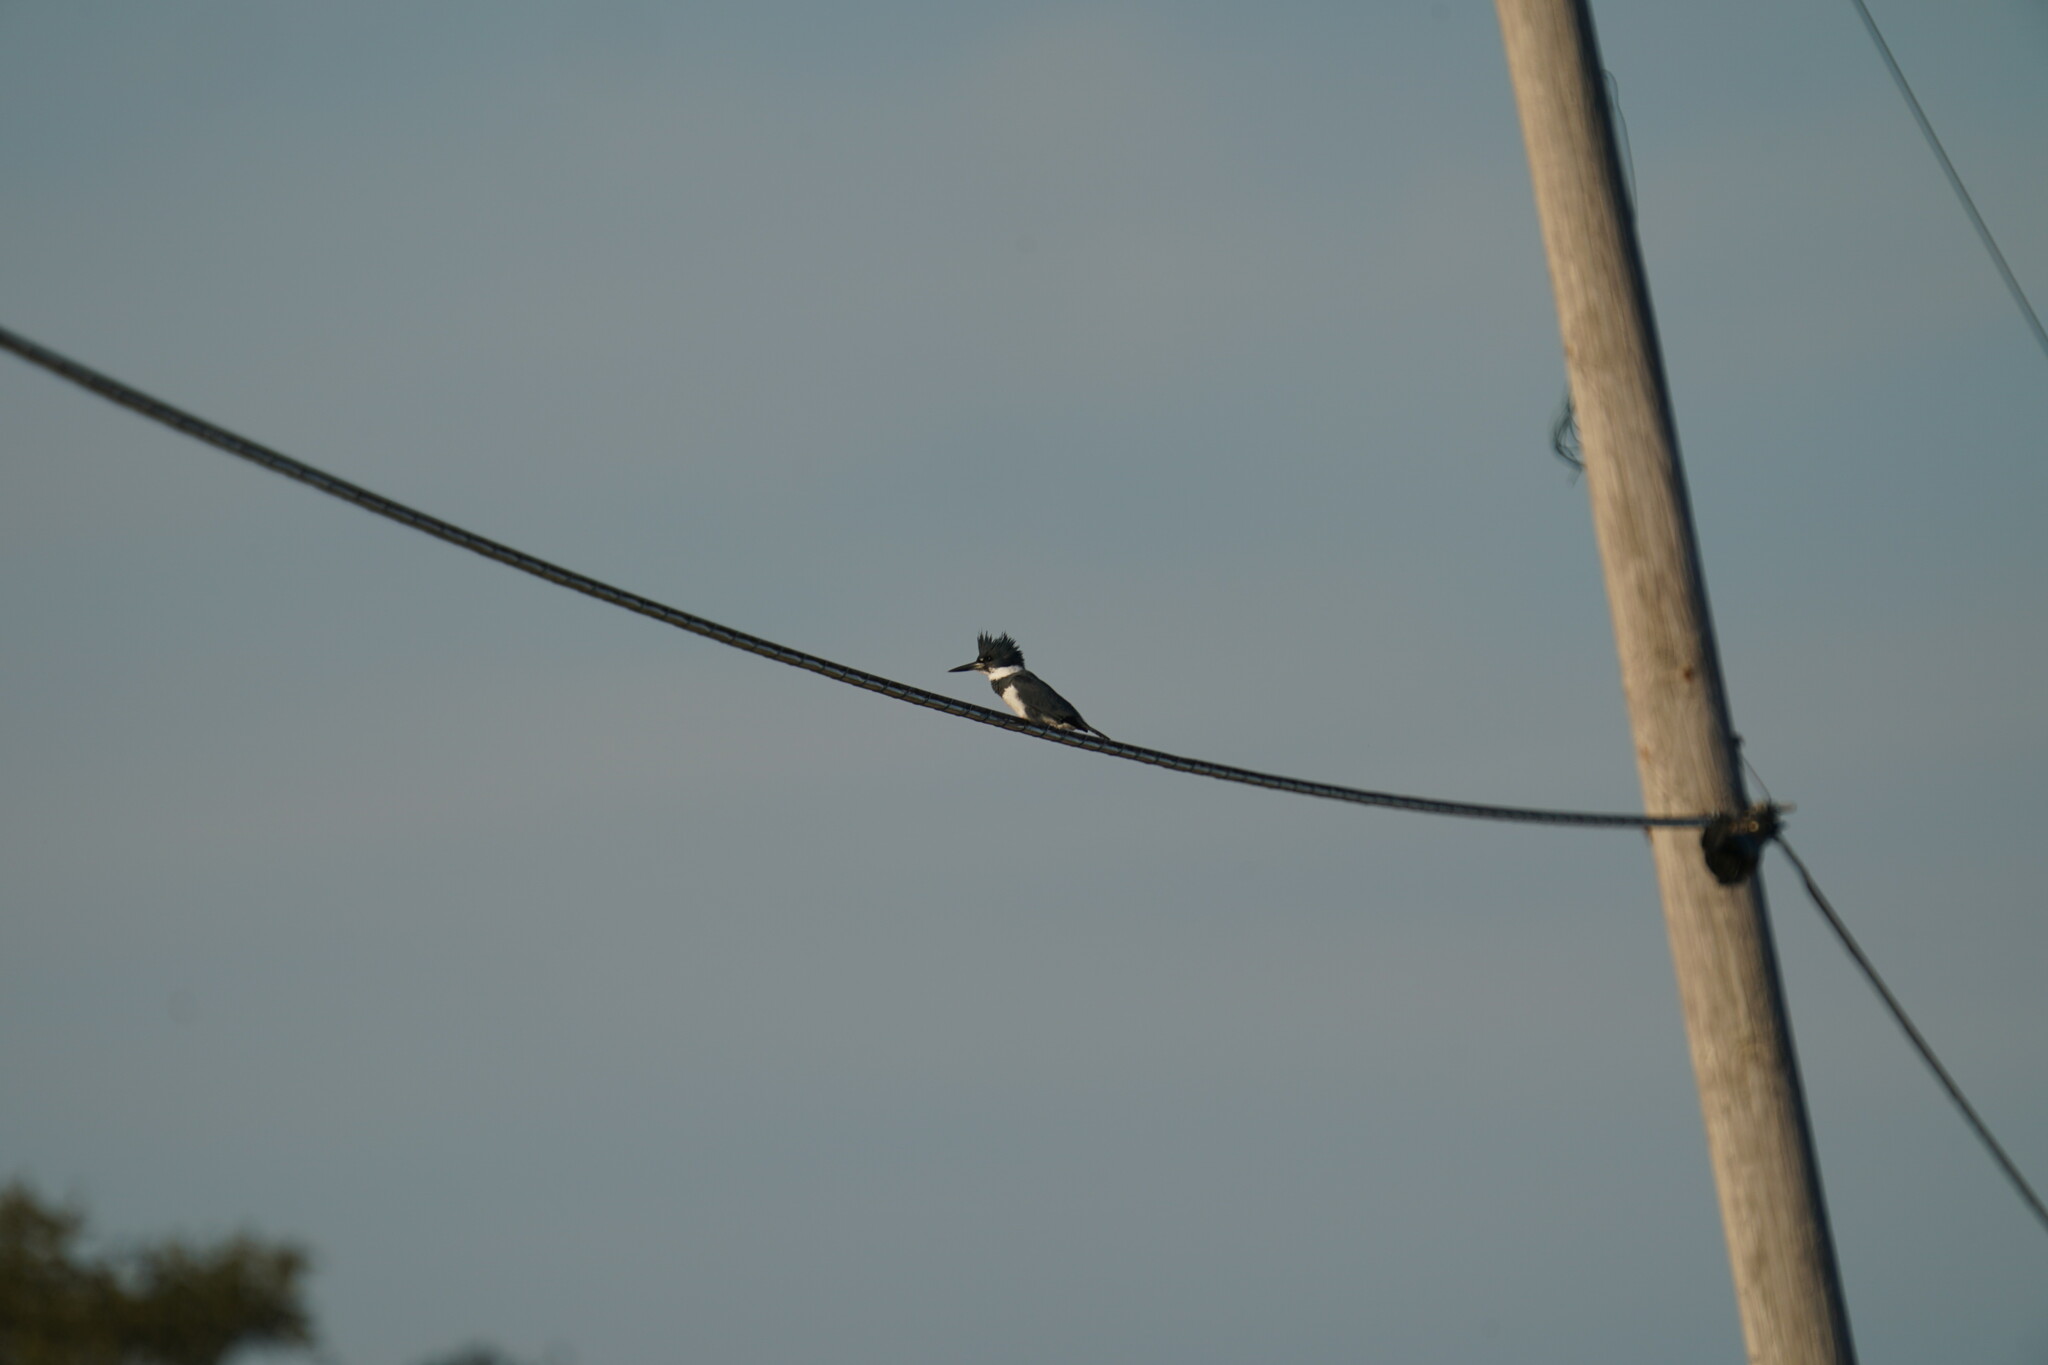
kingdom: Animalia
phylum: Chordata
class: Aves
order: Coraciiformes
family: Alcedinidae
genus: Megaceryle
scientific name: Megaceryle alcyon
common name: Belted kingfisher
